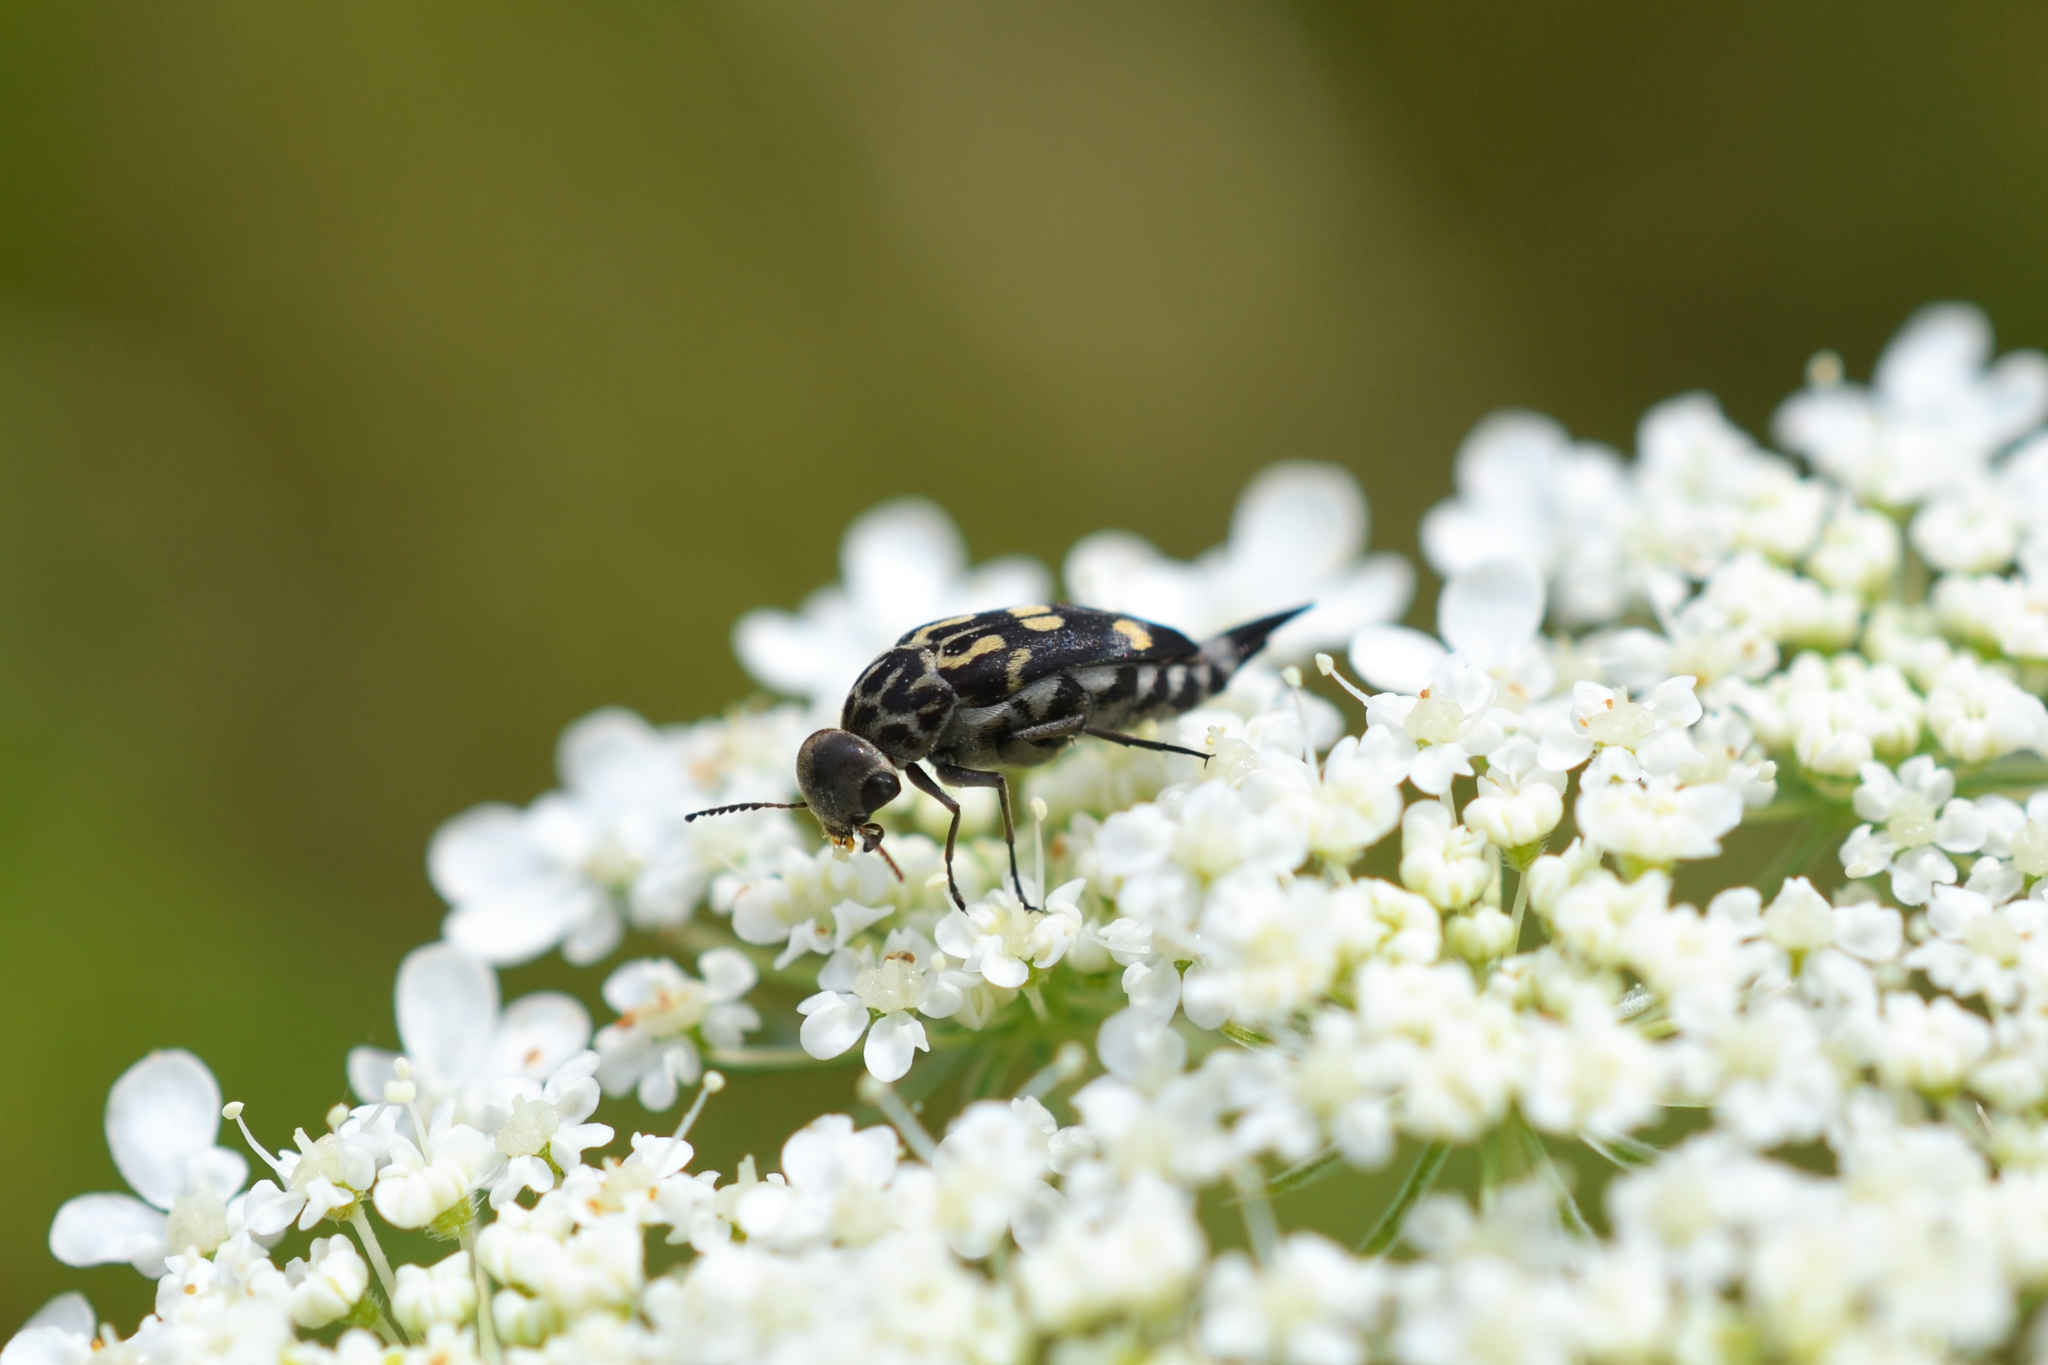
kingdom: Animalia
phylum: Arthropoda
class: Insecta
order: Coleoptera
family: Mordellidae
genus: Hoshihananomia
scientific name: Hoshihananomia octopunctata
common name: Eight-spotted tumbling flower beetle
